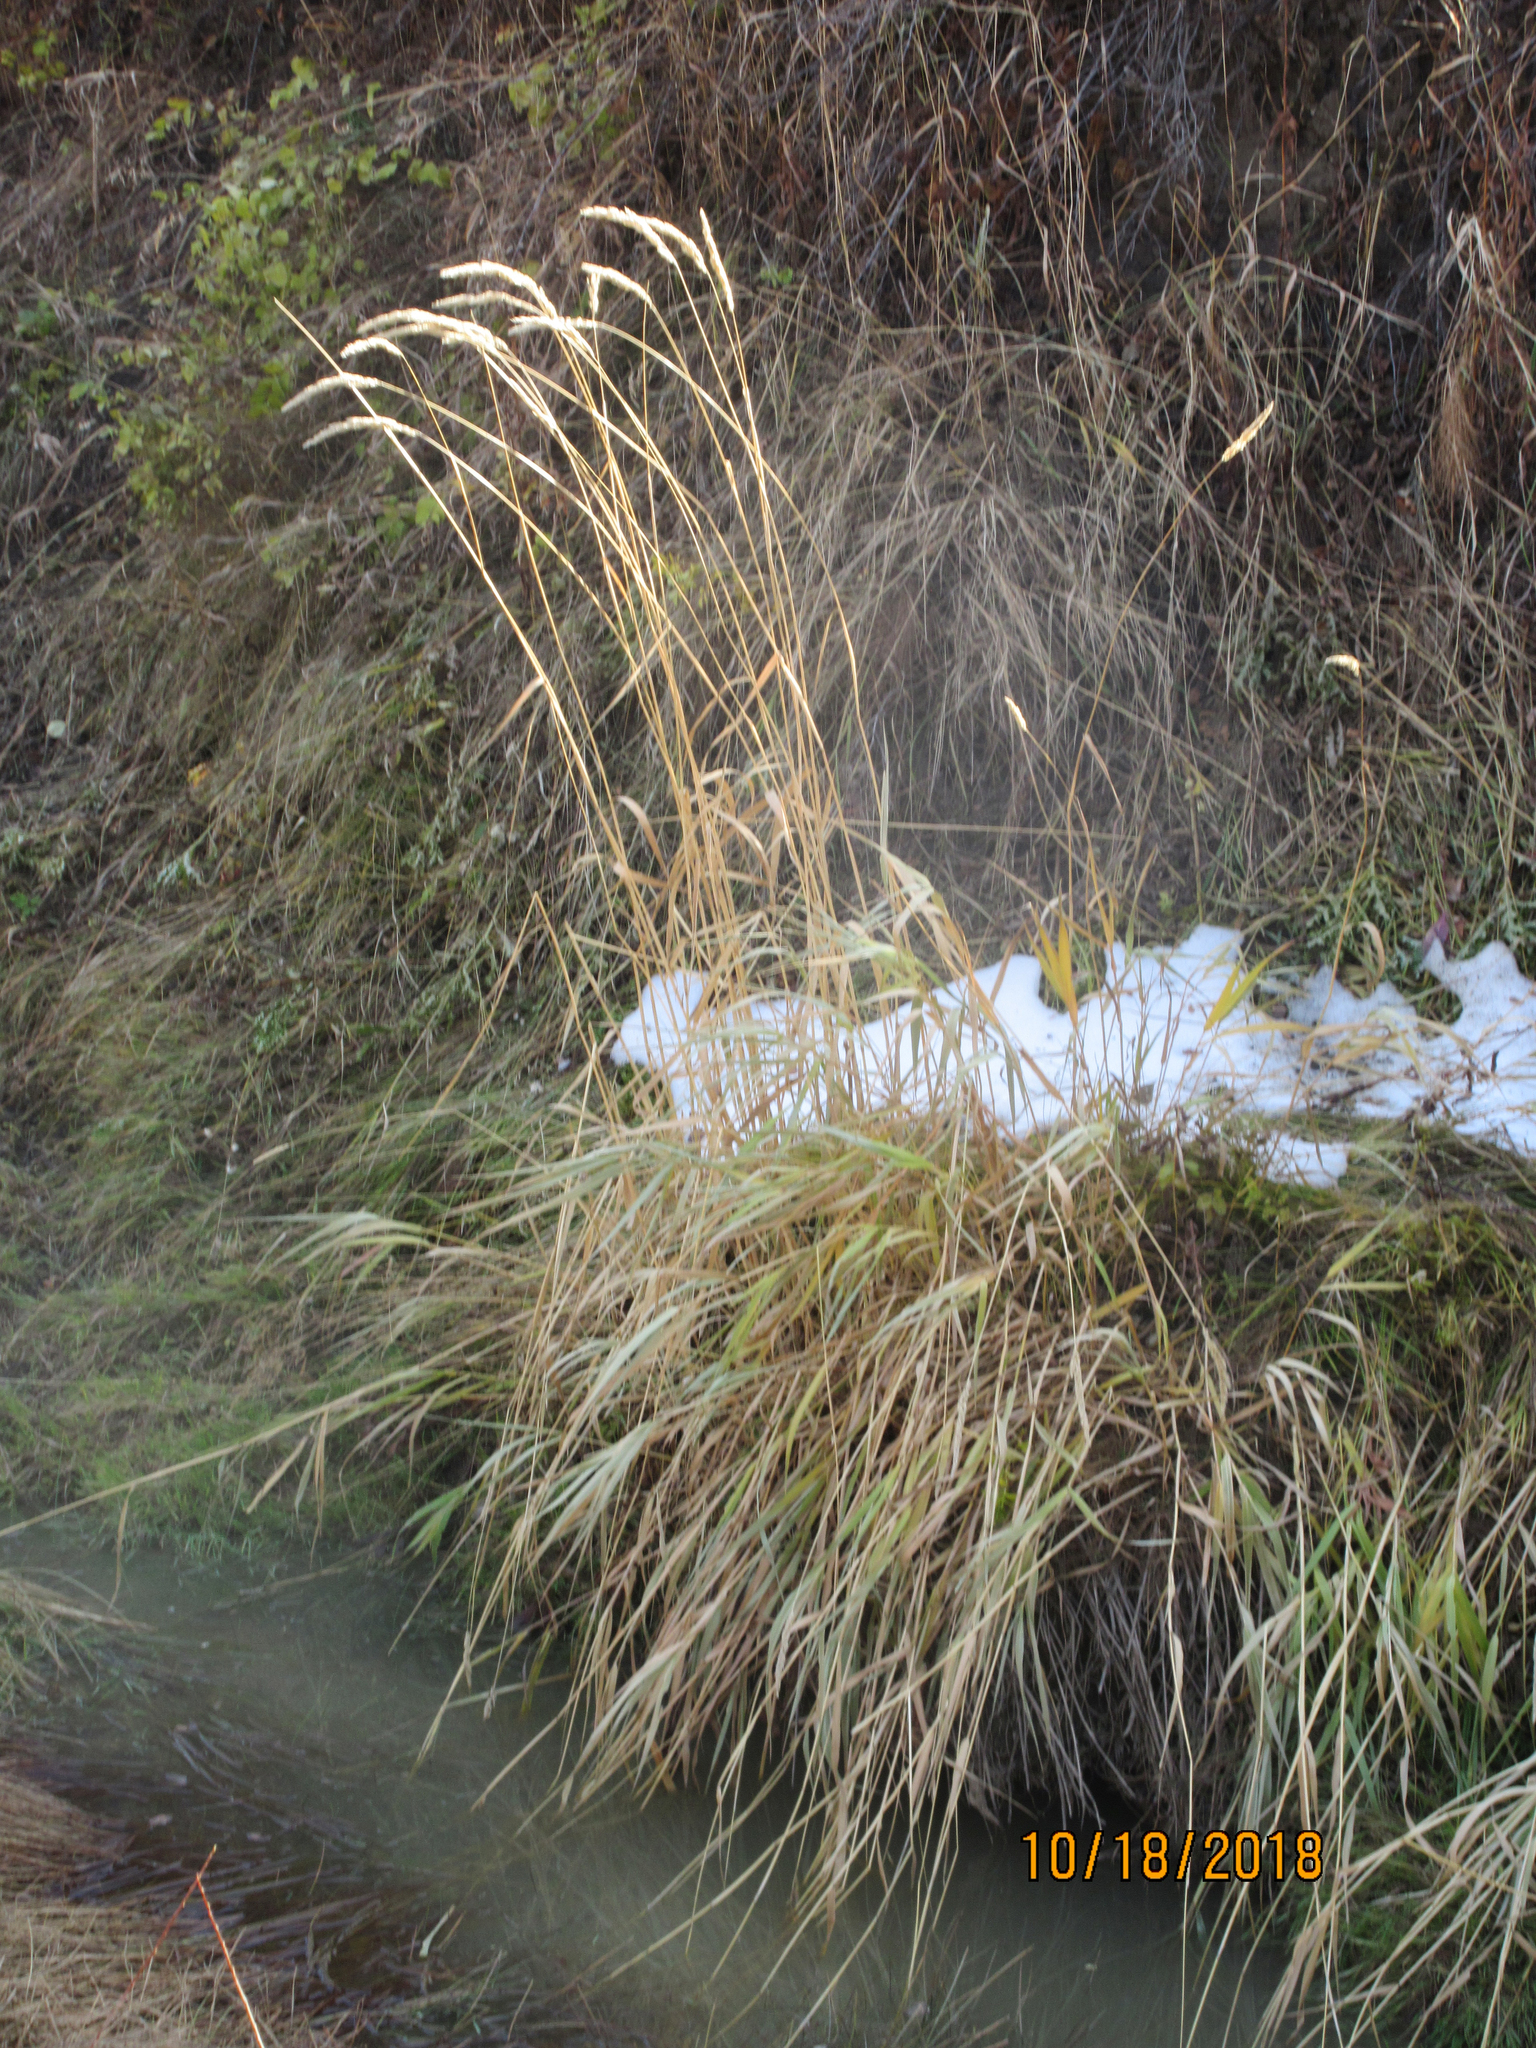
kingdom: Plantae
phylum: Tracheophyta
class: Liliopsida
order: Poales
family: Poaceae
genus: Phalaris
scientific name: Phalaris arundinacea
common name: Reed canary-grass
